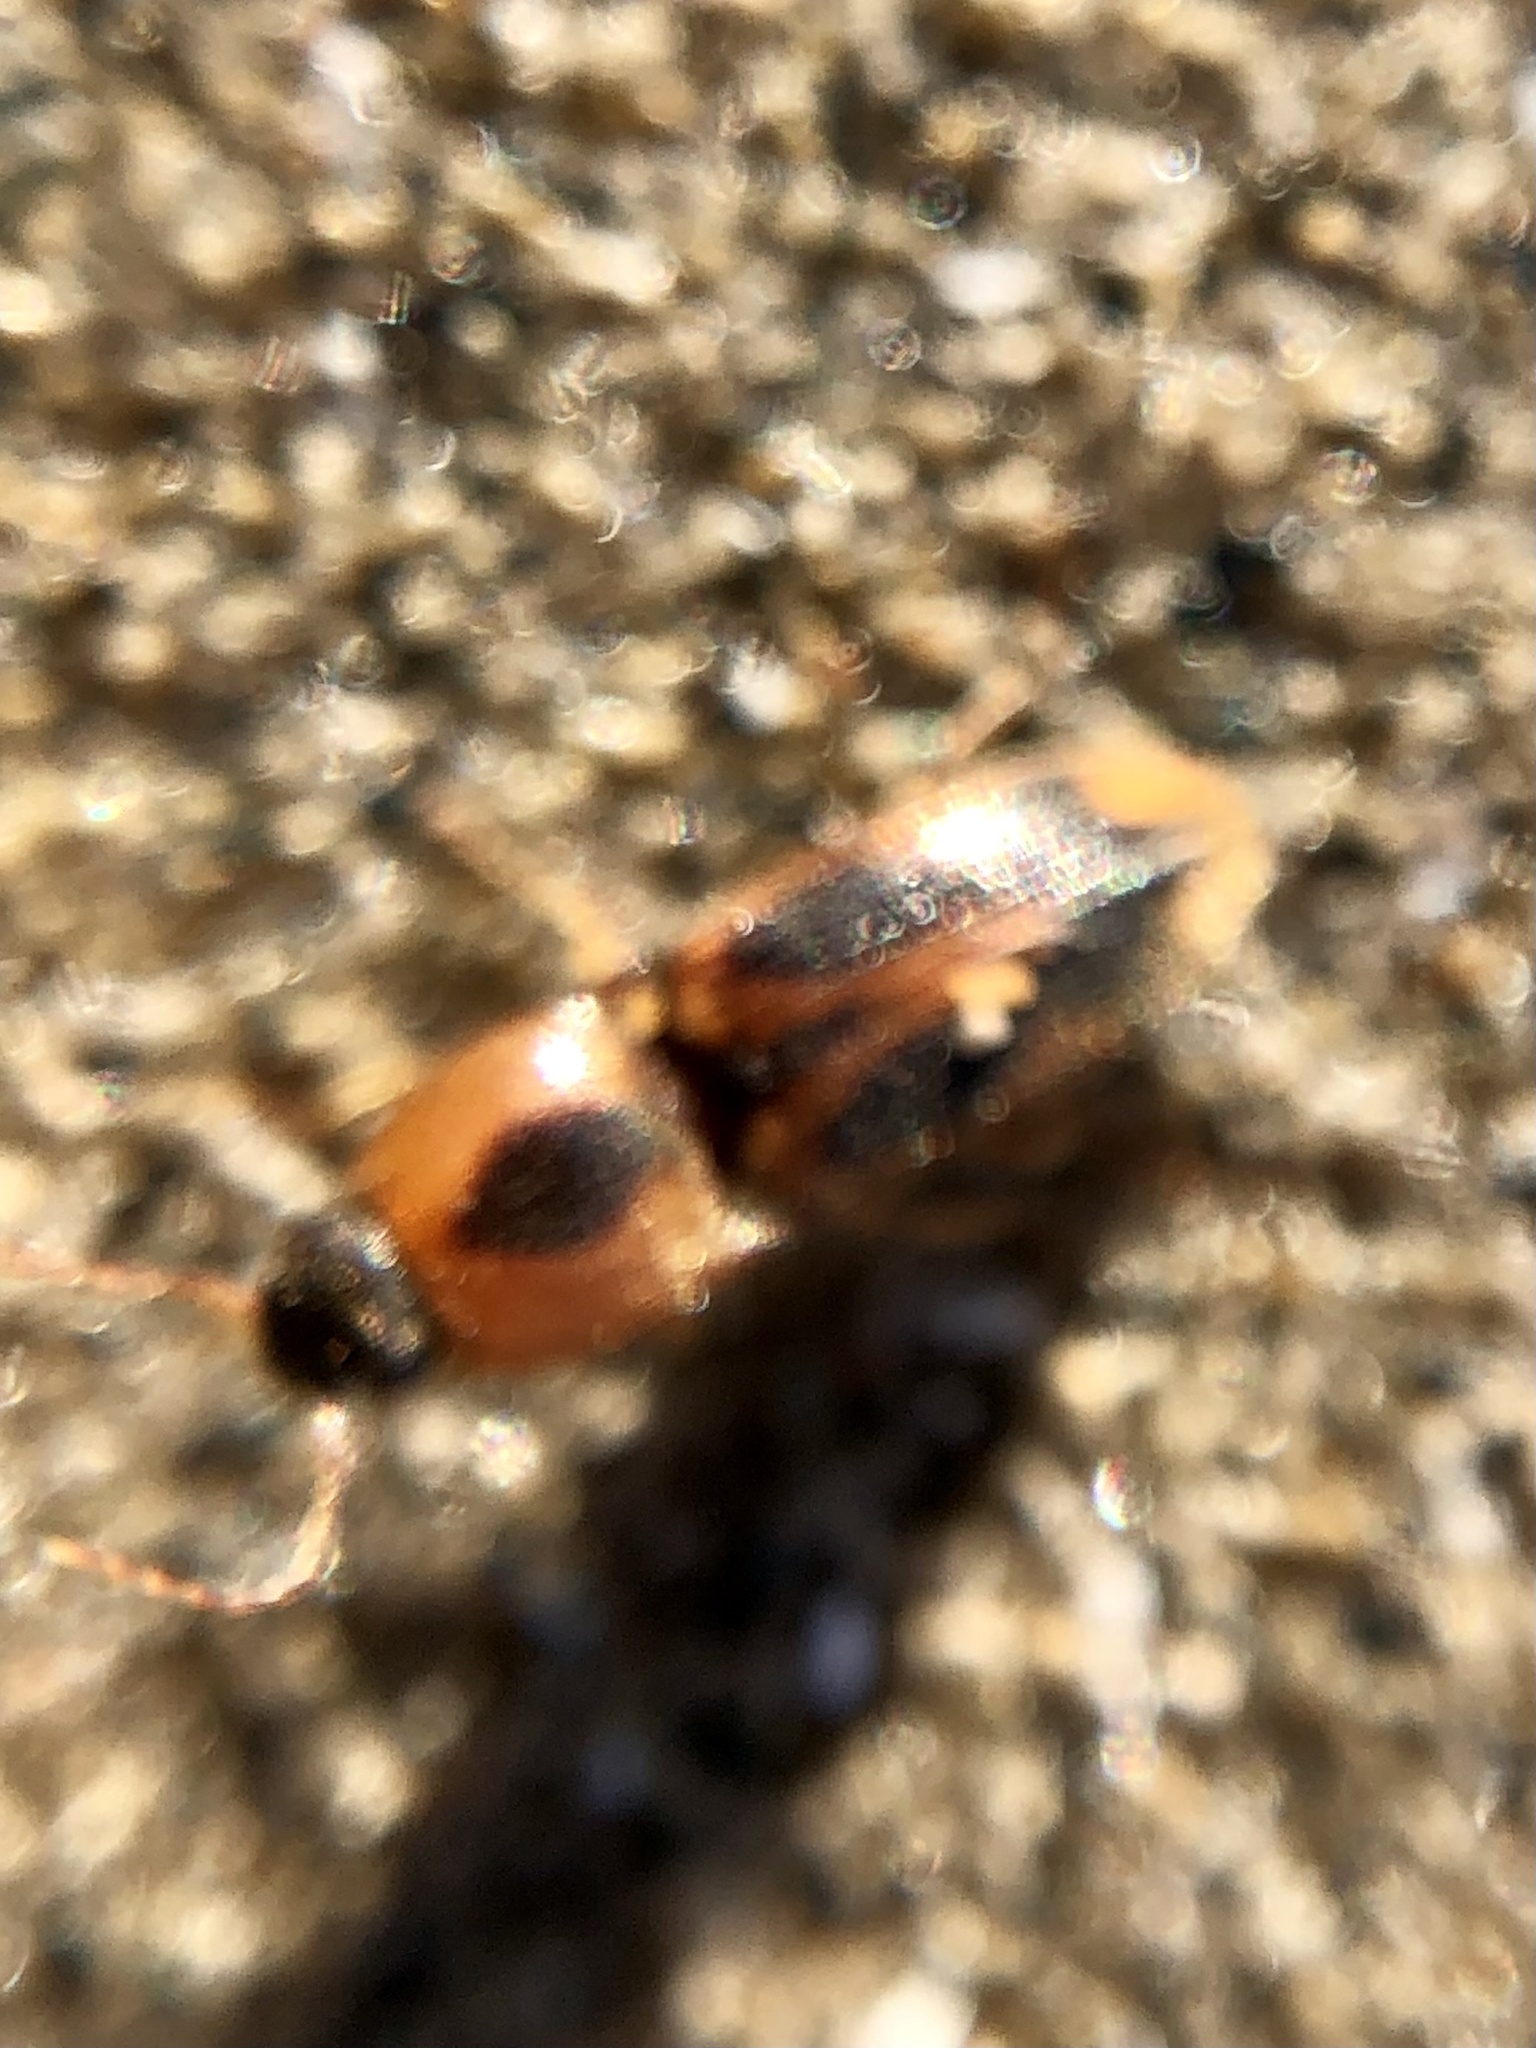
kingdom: Animalia
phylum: Arthropoda
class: Insecta
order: Coleoptera
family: Elateridae
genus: Aeolus
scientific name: Aeolus mellillus
